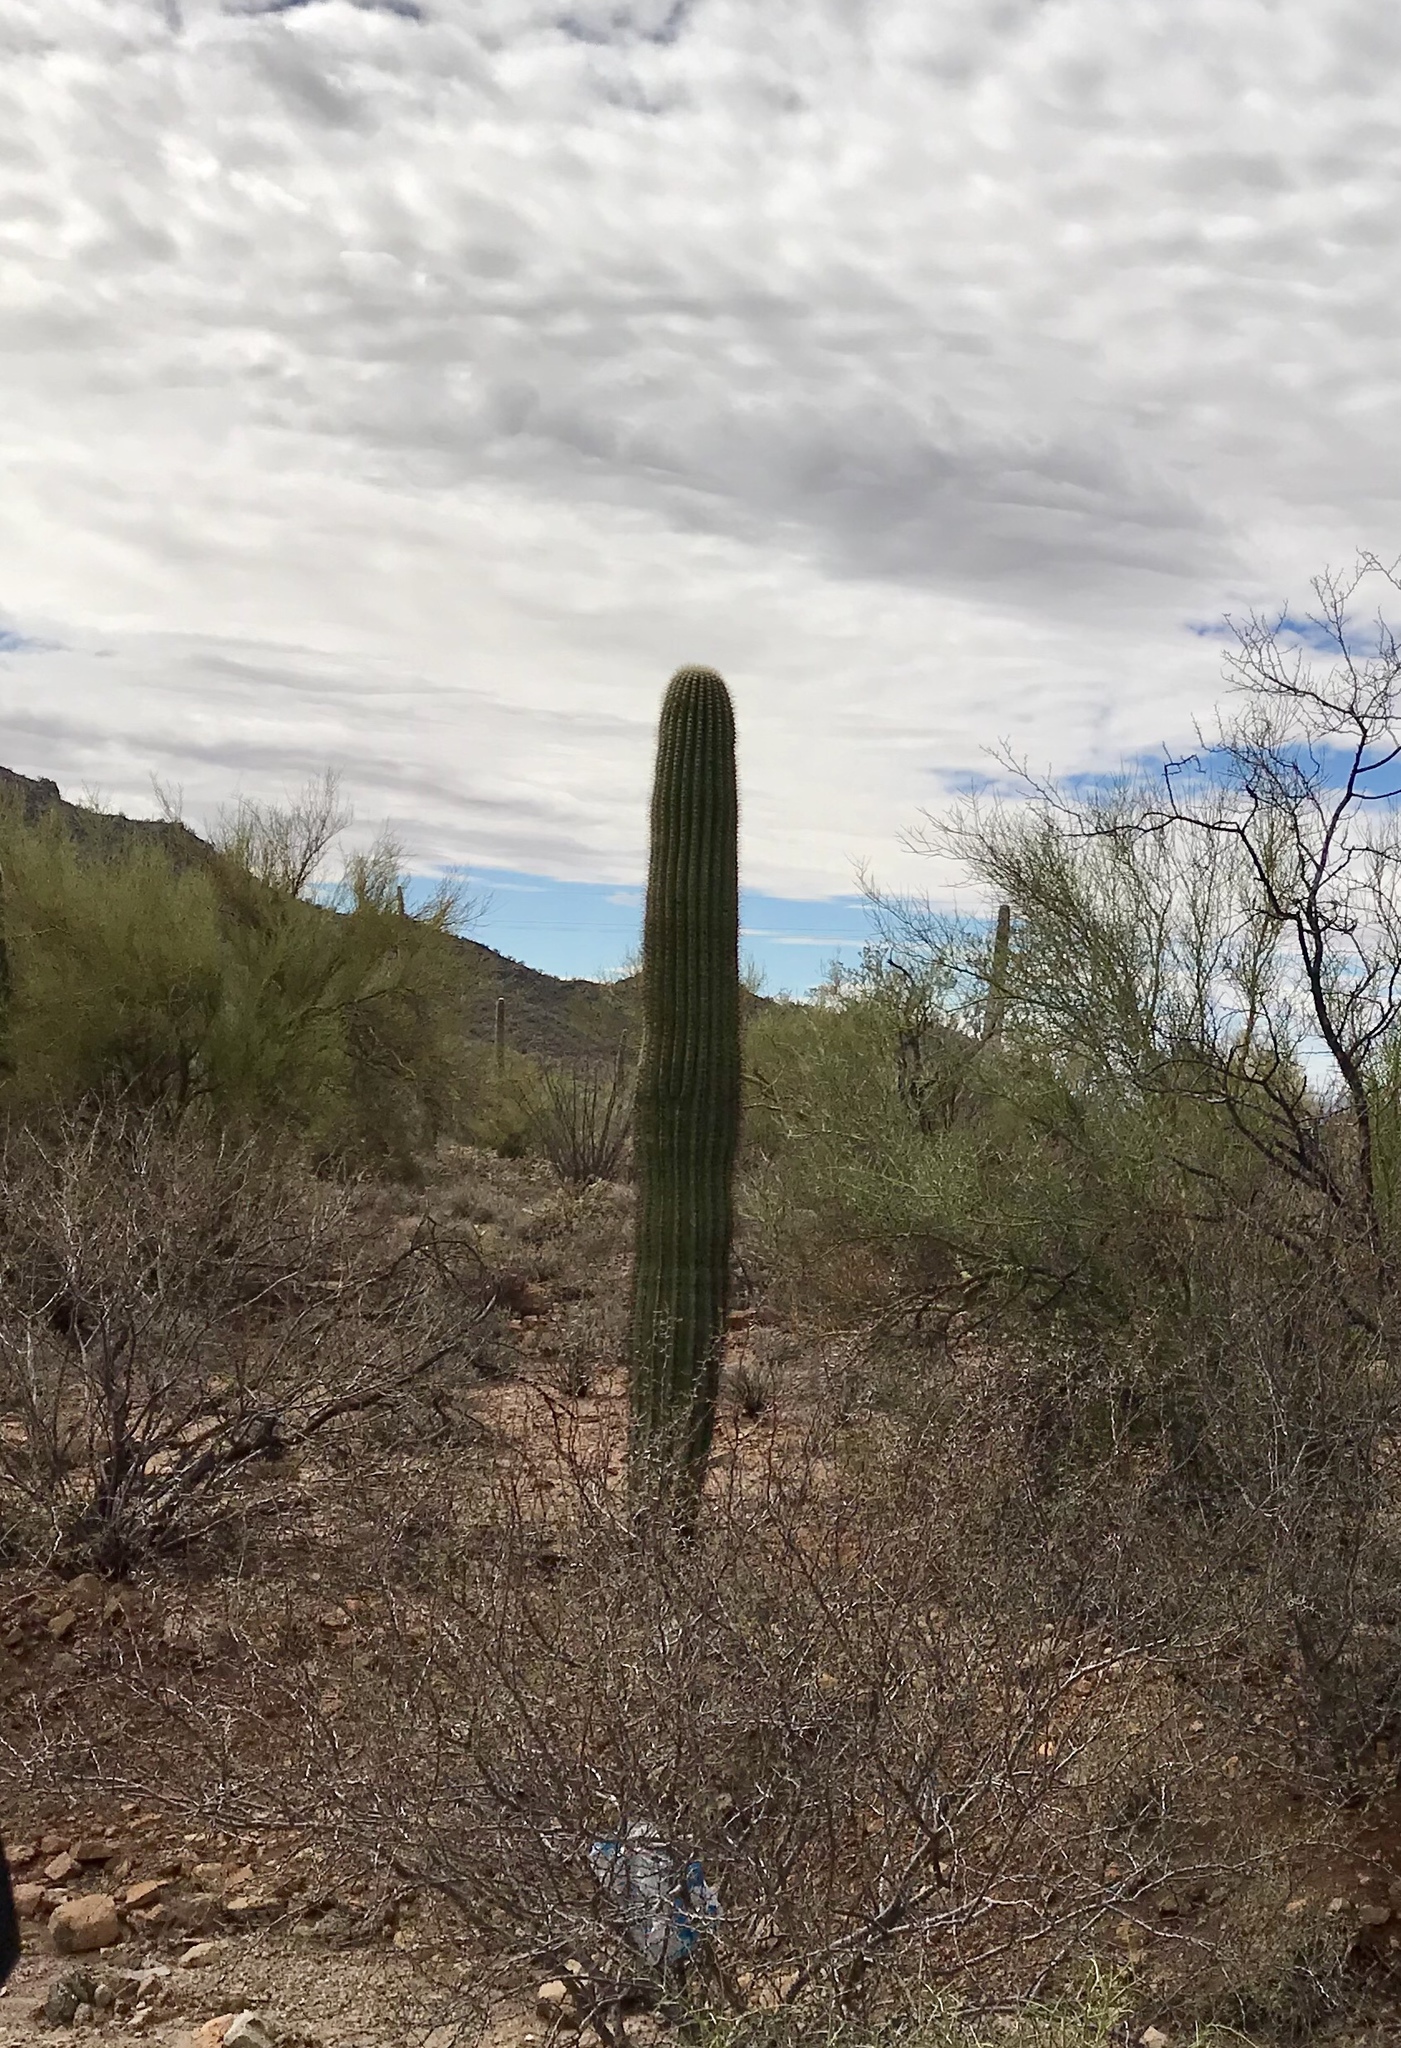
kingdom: Plantae
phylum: Tracheophyta
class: Magnoliopsida
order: Caryophyllales
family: Cactaceae
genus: Carnegiea
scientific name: Carnegiea gigantea
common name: Saguaro
